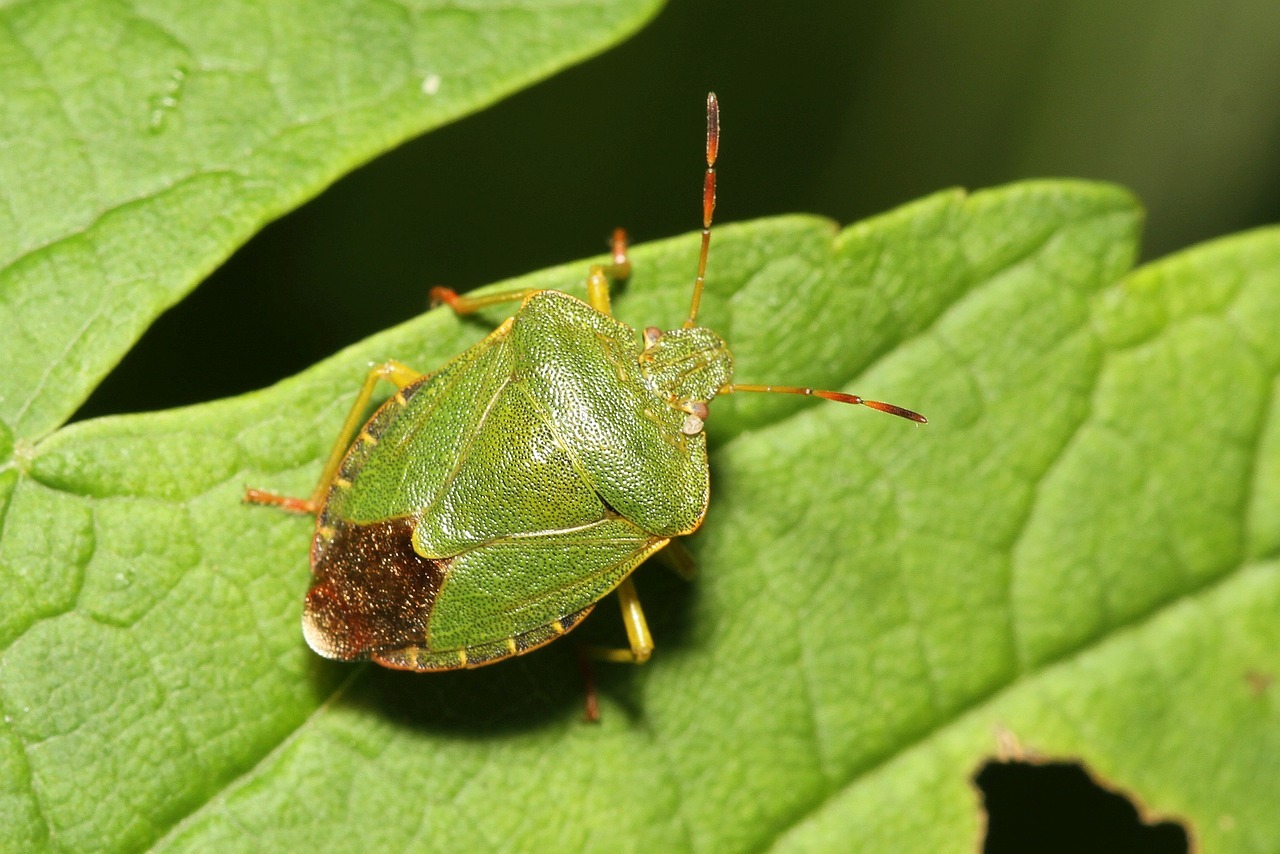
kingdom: Animalia
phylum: Arthropoda
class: Insecta
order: Hemiptera
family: Pentatomidae
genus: Palomena
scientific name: Palomena prasina
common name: Green shieldbug
